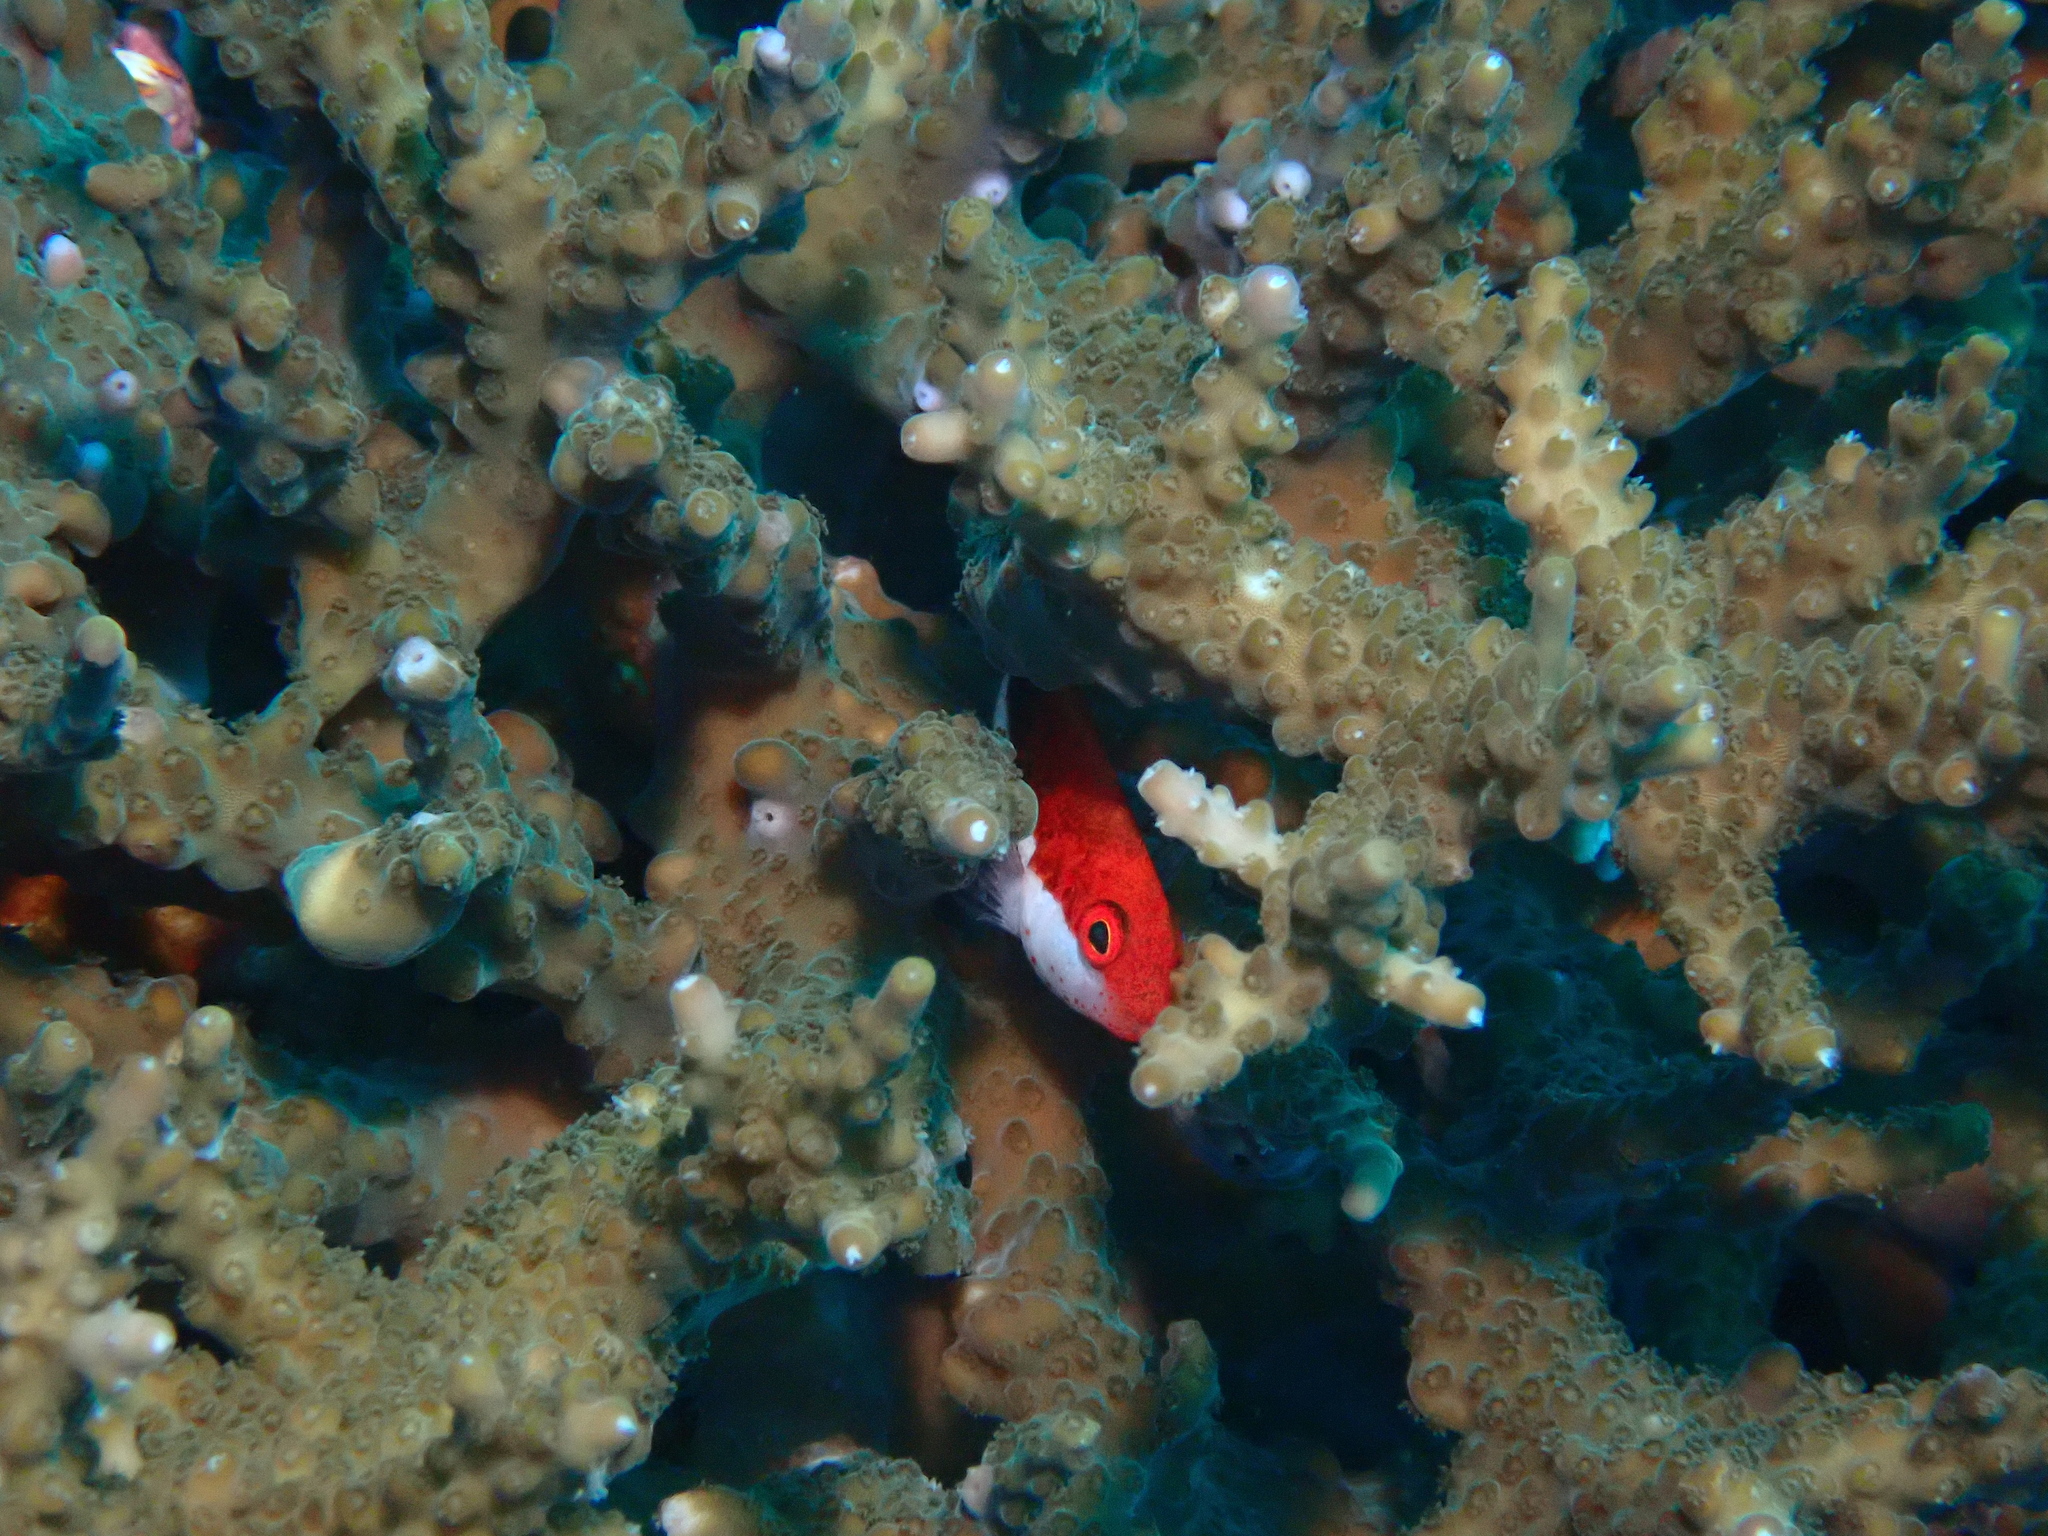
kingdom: Animalia
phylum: Chordata
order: Perciformes
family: Cirrhitidae
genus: Paracirrhites
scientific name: Paracirrhites forsteri
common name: Freckled hawkfish
